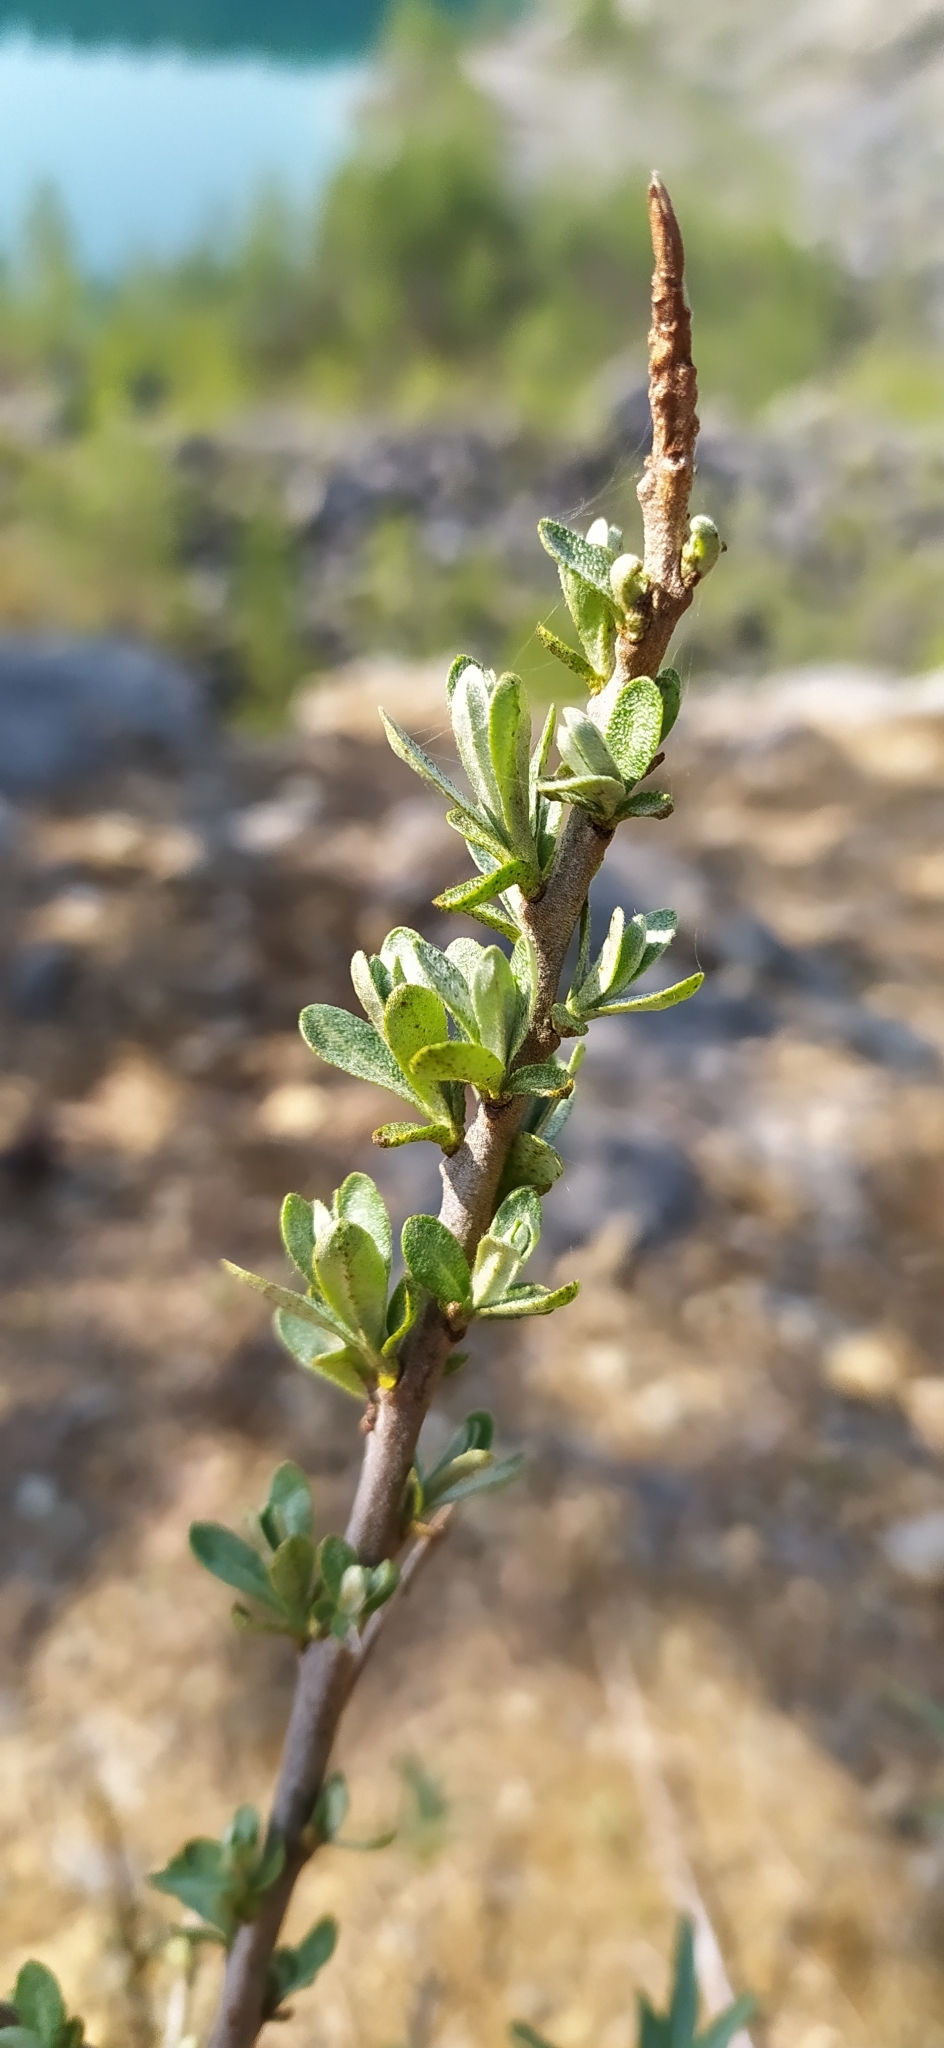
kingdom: Plantae
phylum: Tracheophyta
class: Magnoliopsida
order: Rosales
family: Elaeagnaceae
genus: Hippophae
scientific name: Hippophae rhamnoides
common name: Sea-buckthorn
